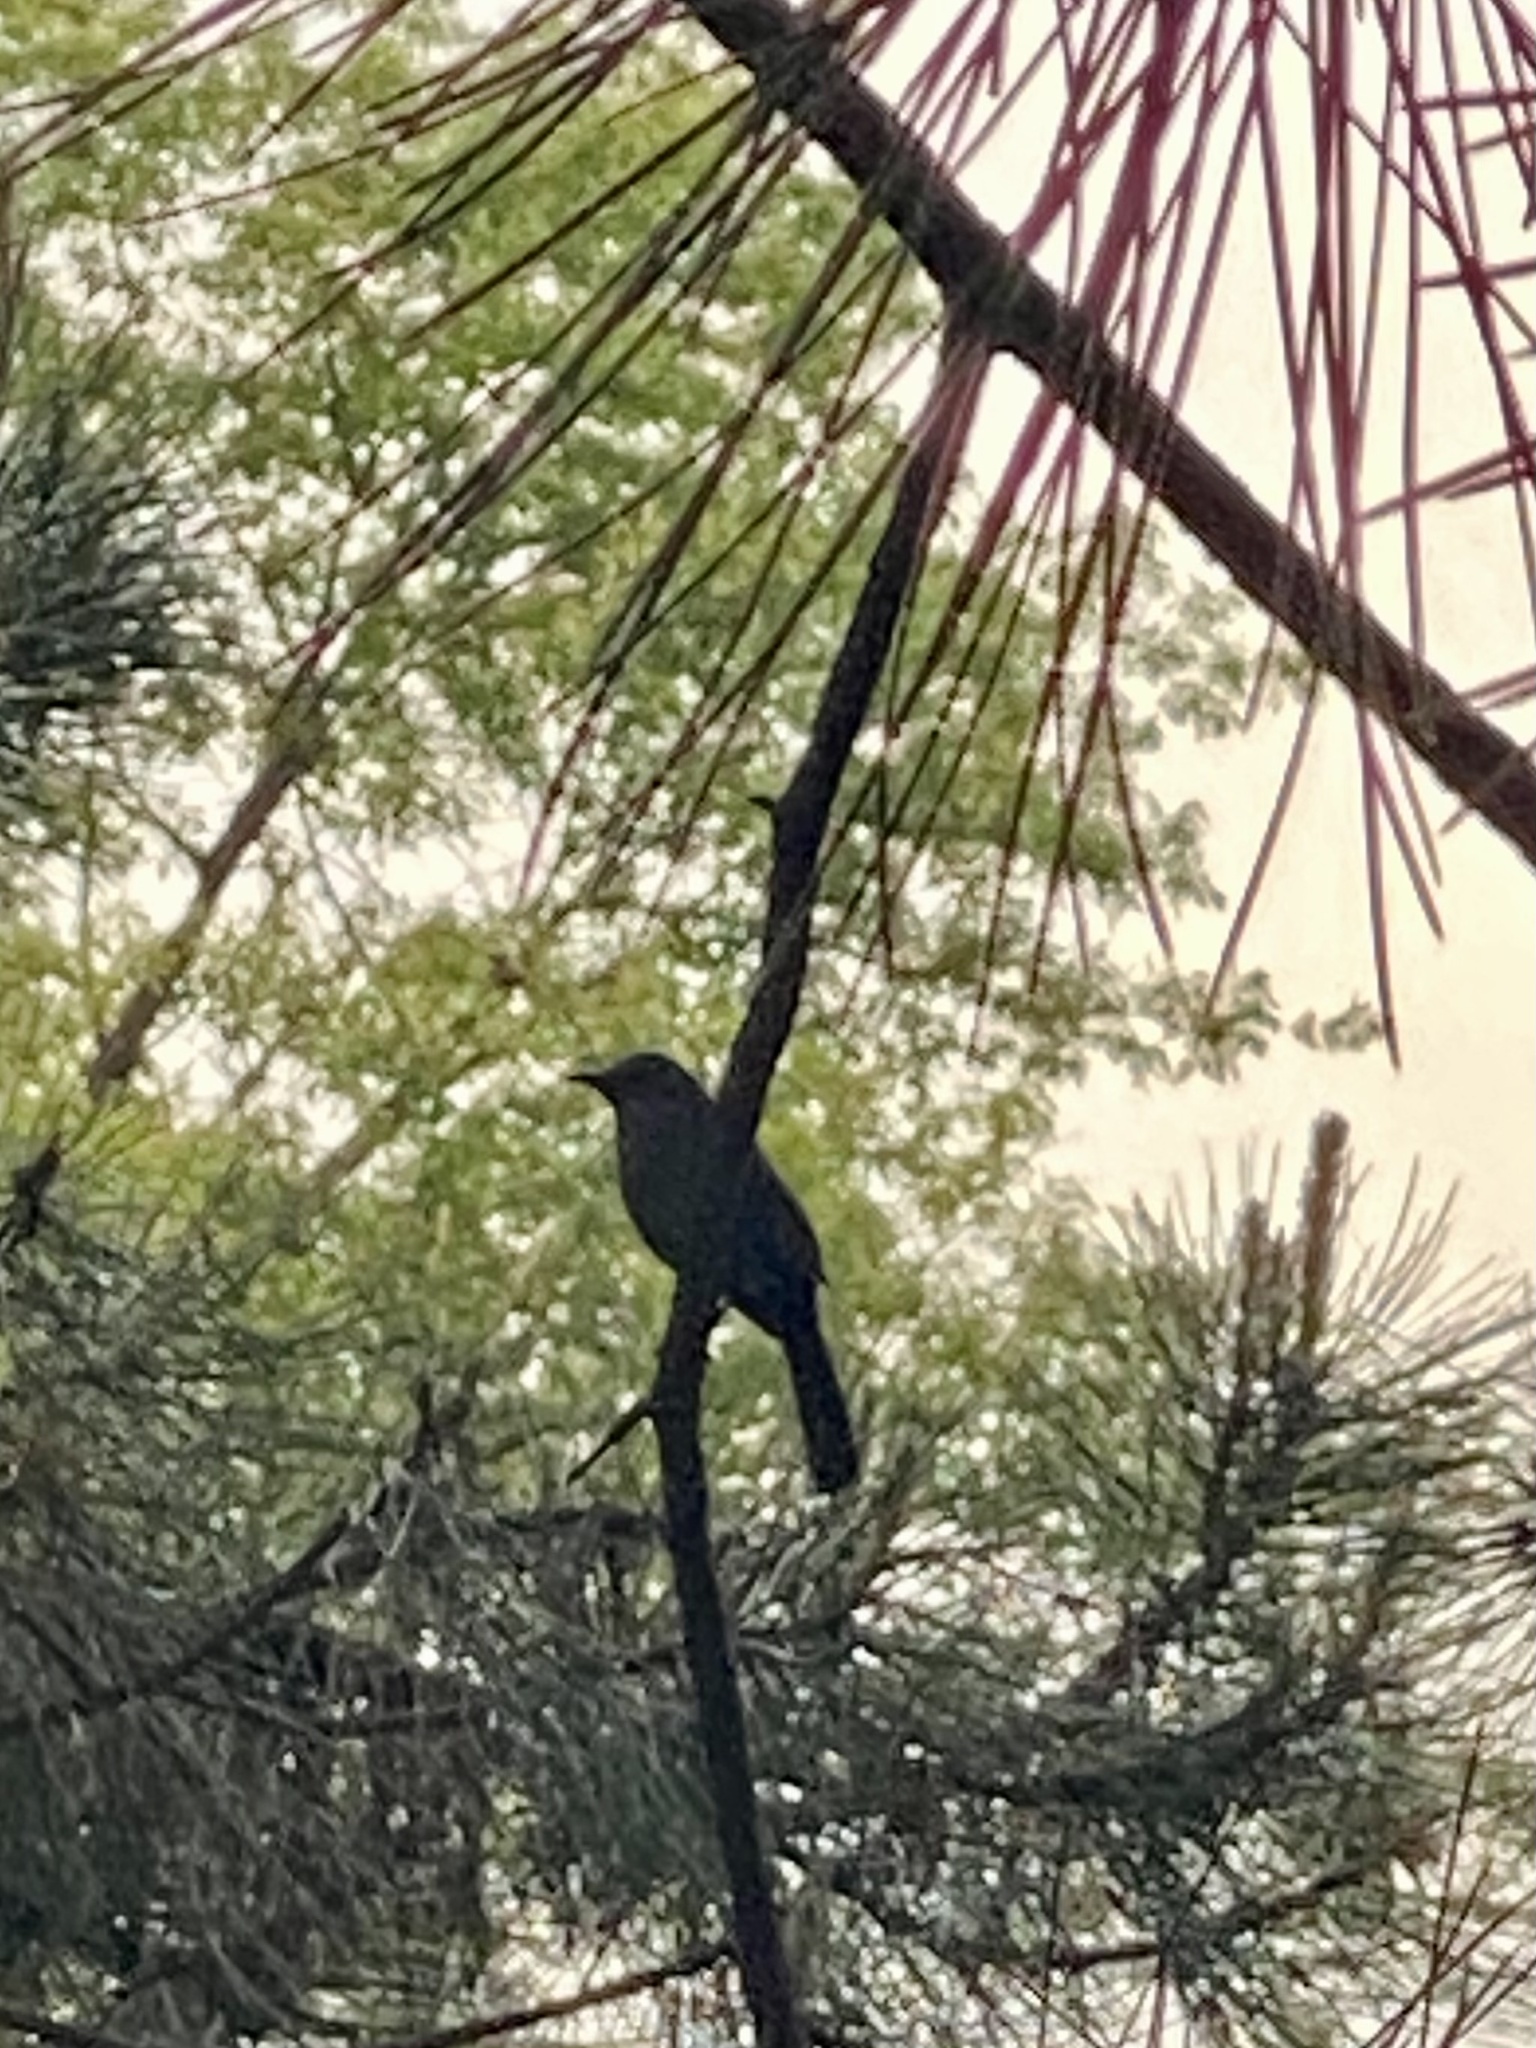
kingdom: Animalia
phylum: Chordata
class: Aves
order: Passeriformes
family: Mimidae
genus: Dumetella
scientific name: Dumetella carolinensis
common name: Gray catbird
